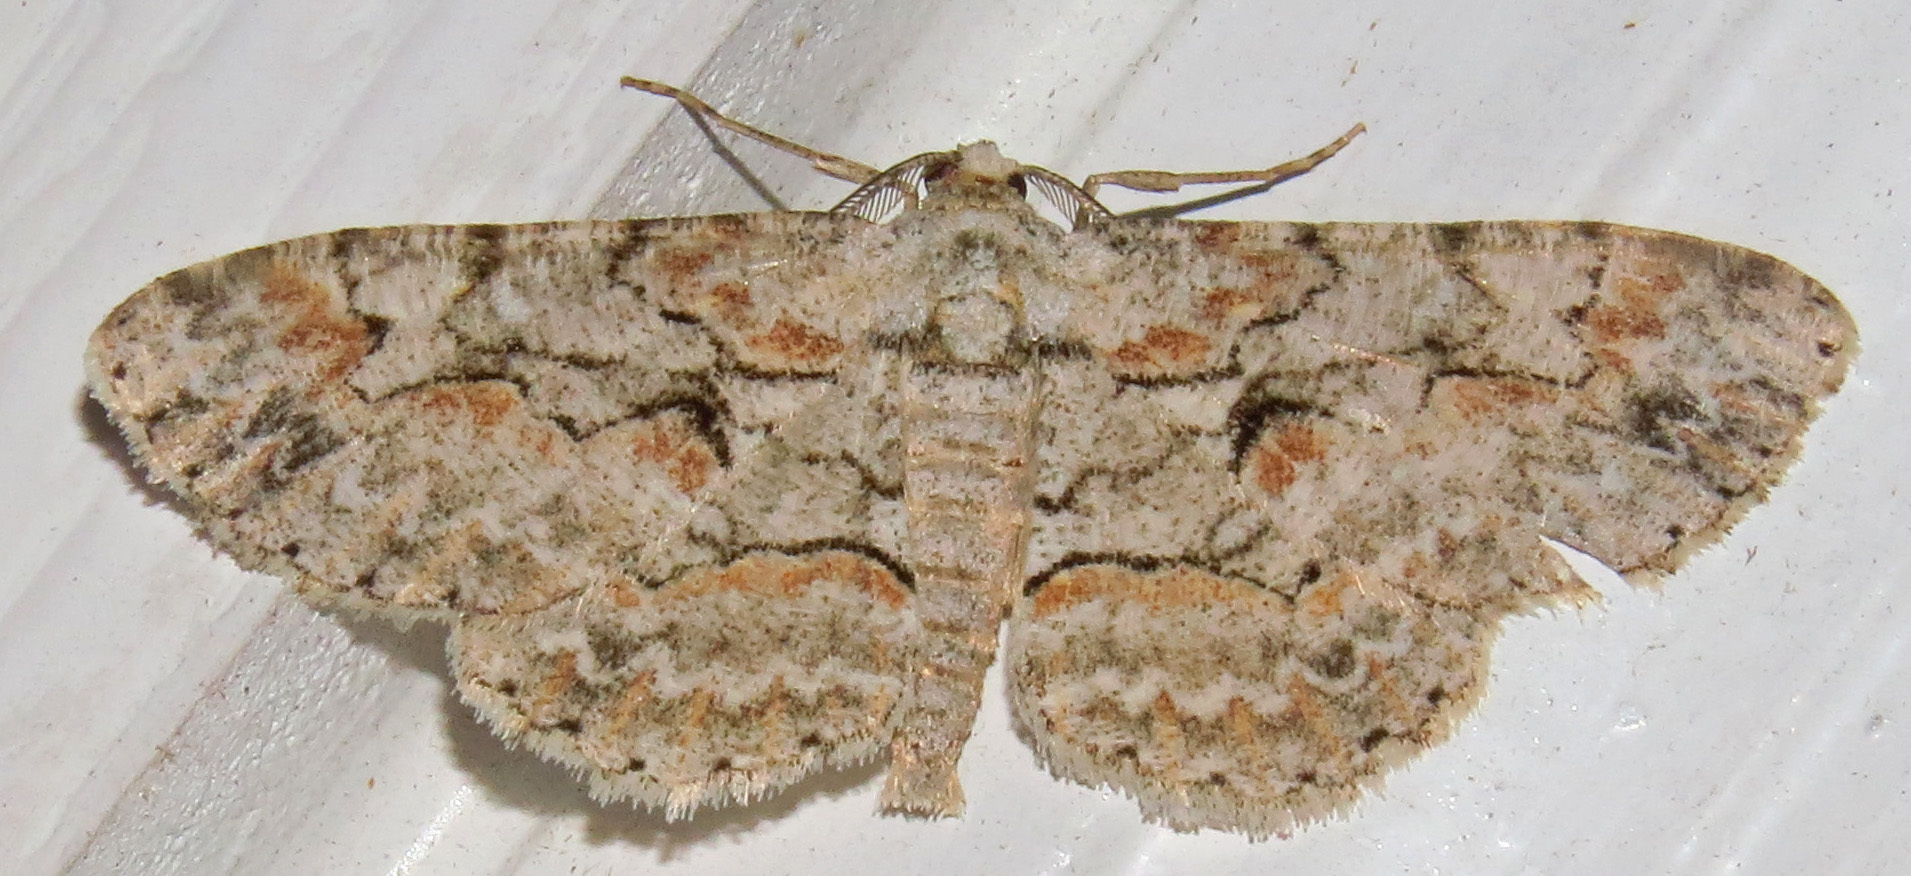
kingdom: Animalia
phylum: Arthropoda
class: Insecta
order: Lepidoptera
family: Geometridae
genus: Iridopsis
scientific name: Iridopsis defectaria
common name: Brown-shaded gray
